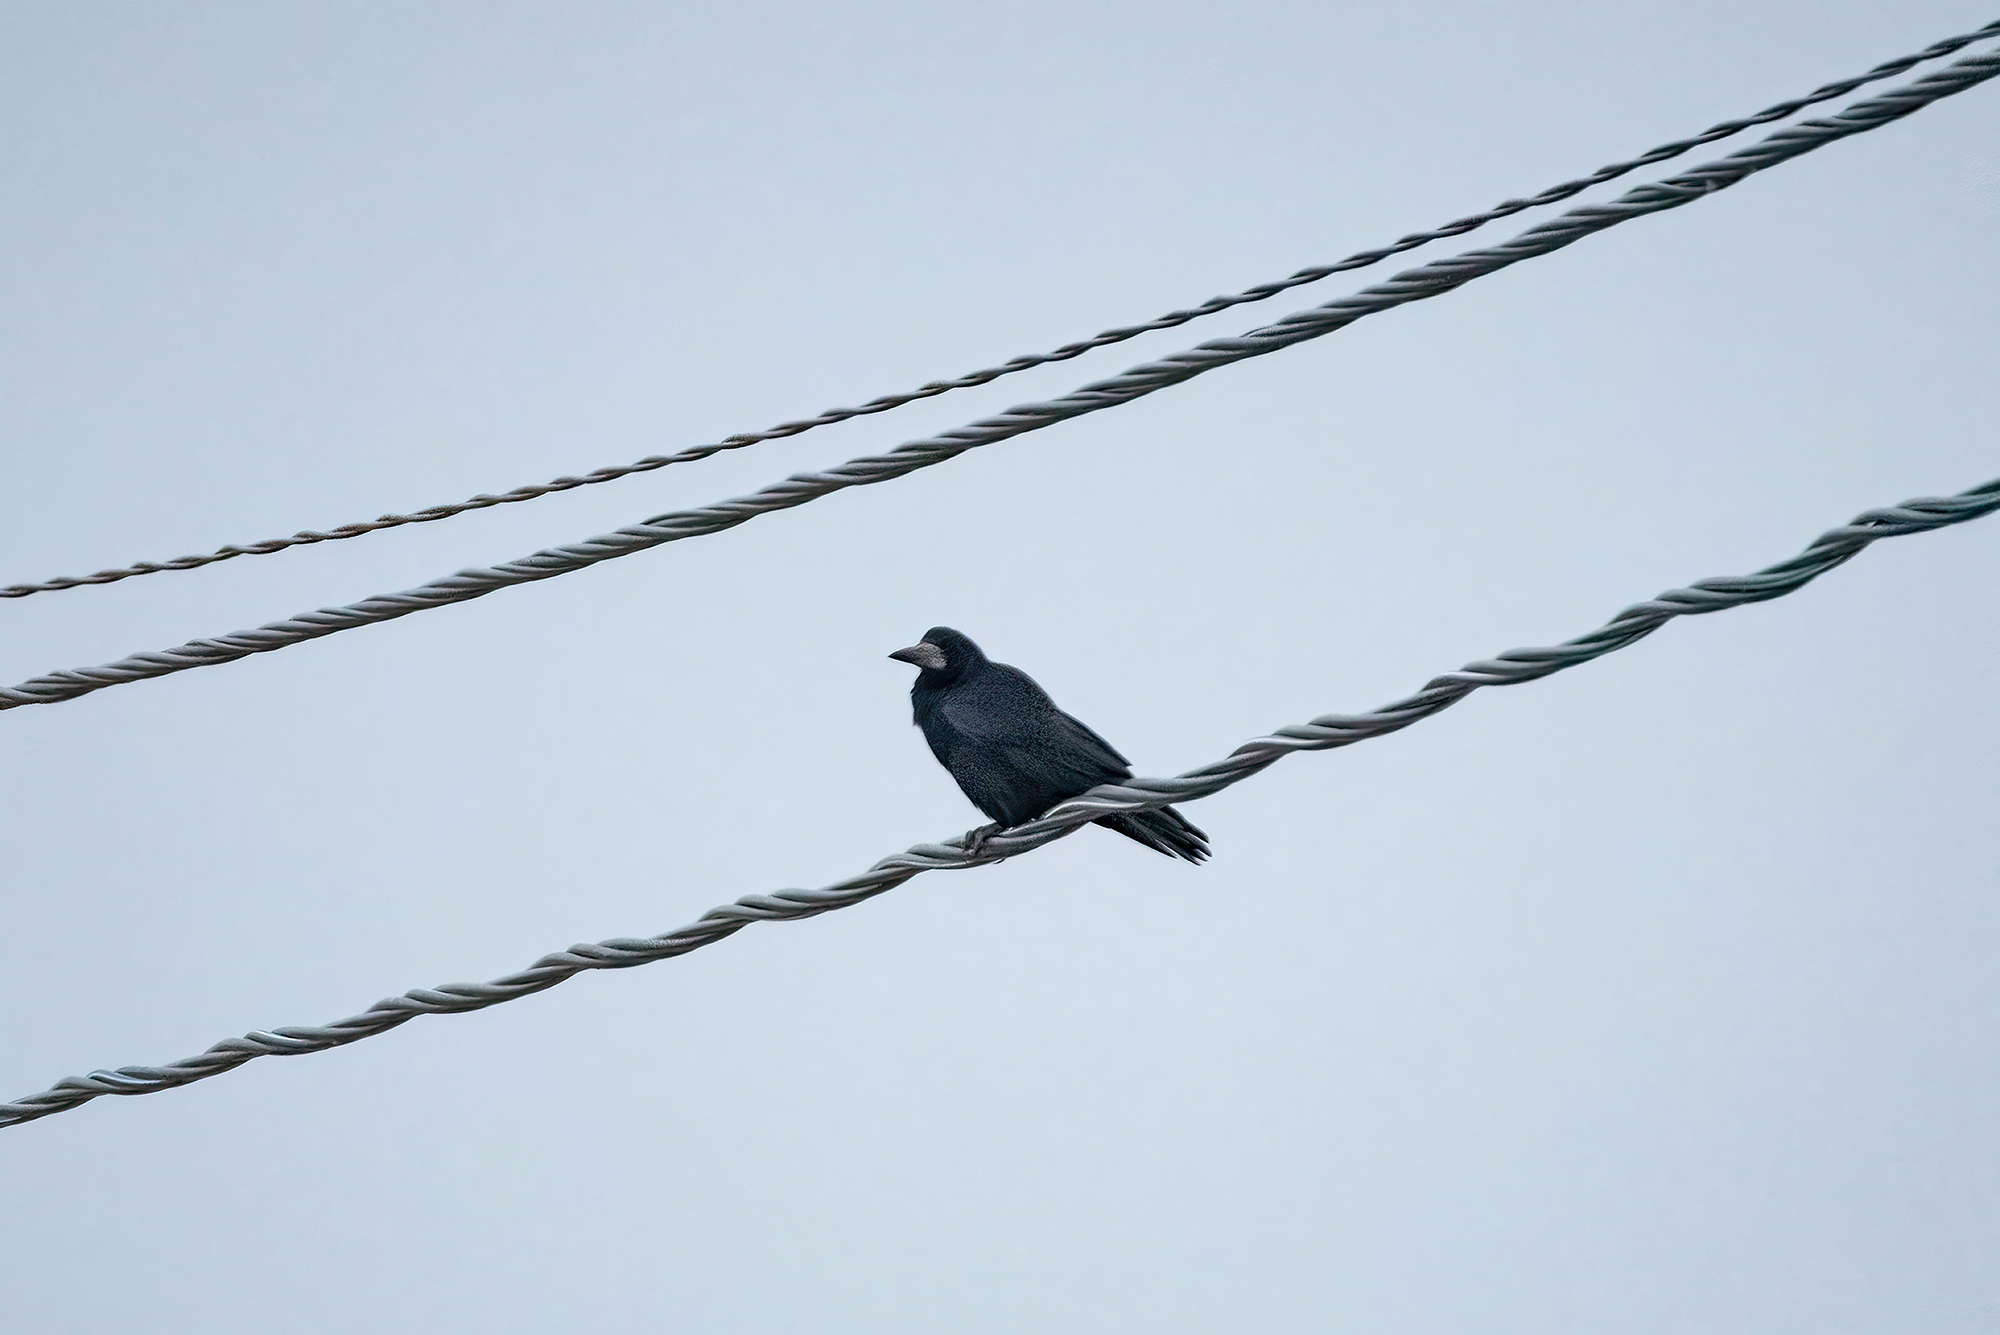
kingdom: Animalia
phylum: Chordata
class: Aves
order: Passeriformes
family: Corvidae
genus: Corvus
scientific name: Corvus frugilegus
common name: Rook
